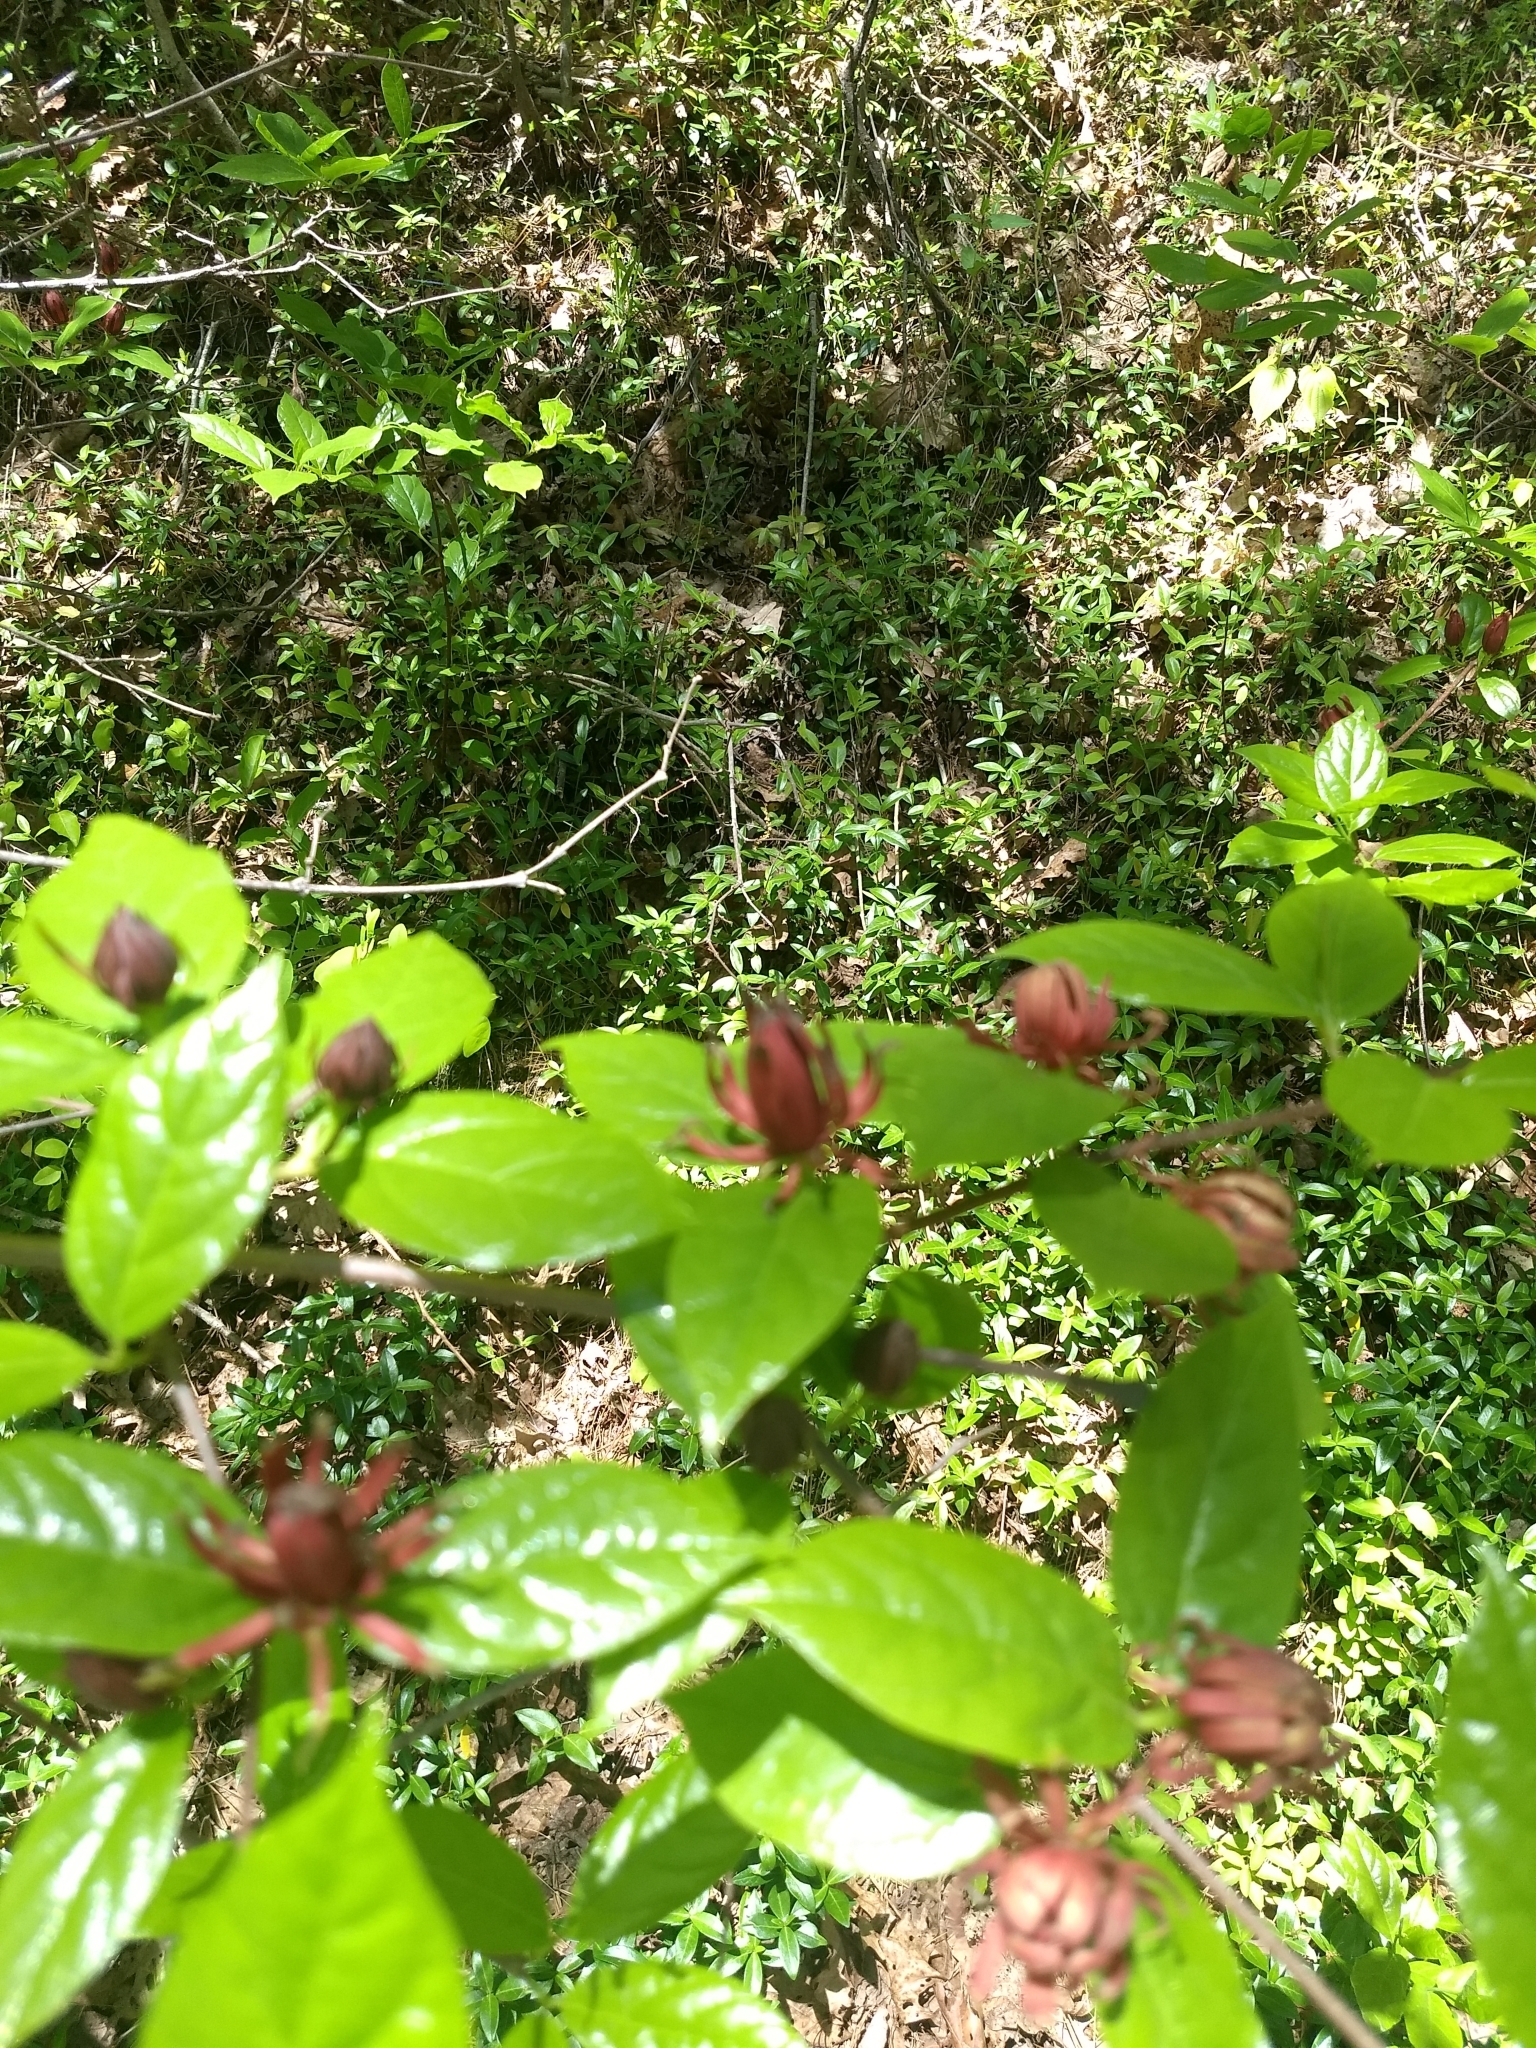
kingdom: Plantae
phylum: Tracheophyta
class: Magnoliopsida
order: Laurales
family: Calycanthaceae
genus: Calycanthus
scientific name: Calycanthus floridus
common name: Carolina-allspice
